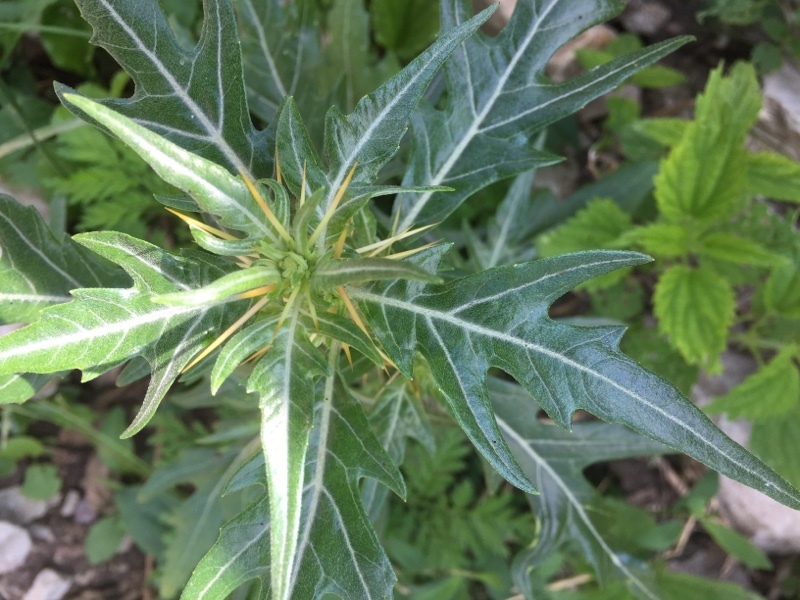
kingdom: Plantae
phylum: Tracheophyta
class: Magnoliopsida
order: Asterales
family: Asteraceae
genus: Xanthium
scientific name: Xanthium spinosum
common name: Spiny cocklebur
